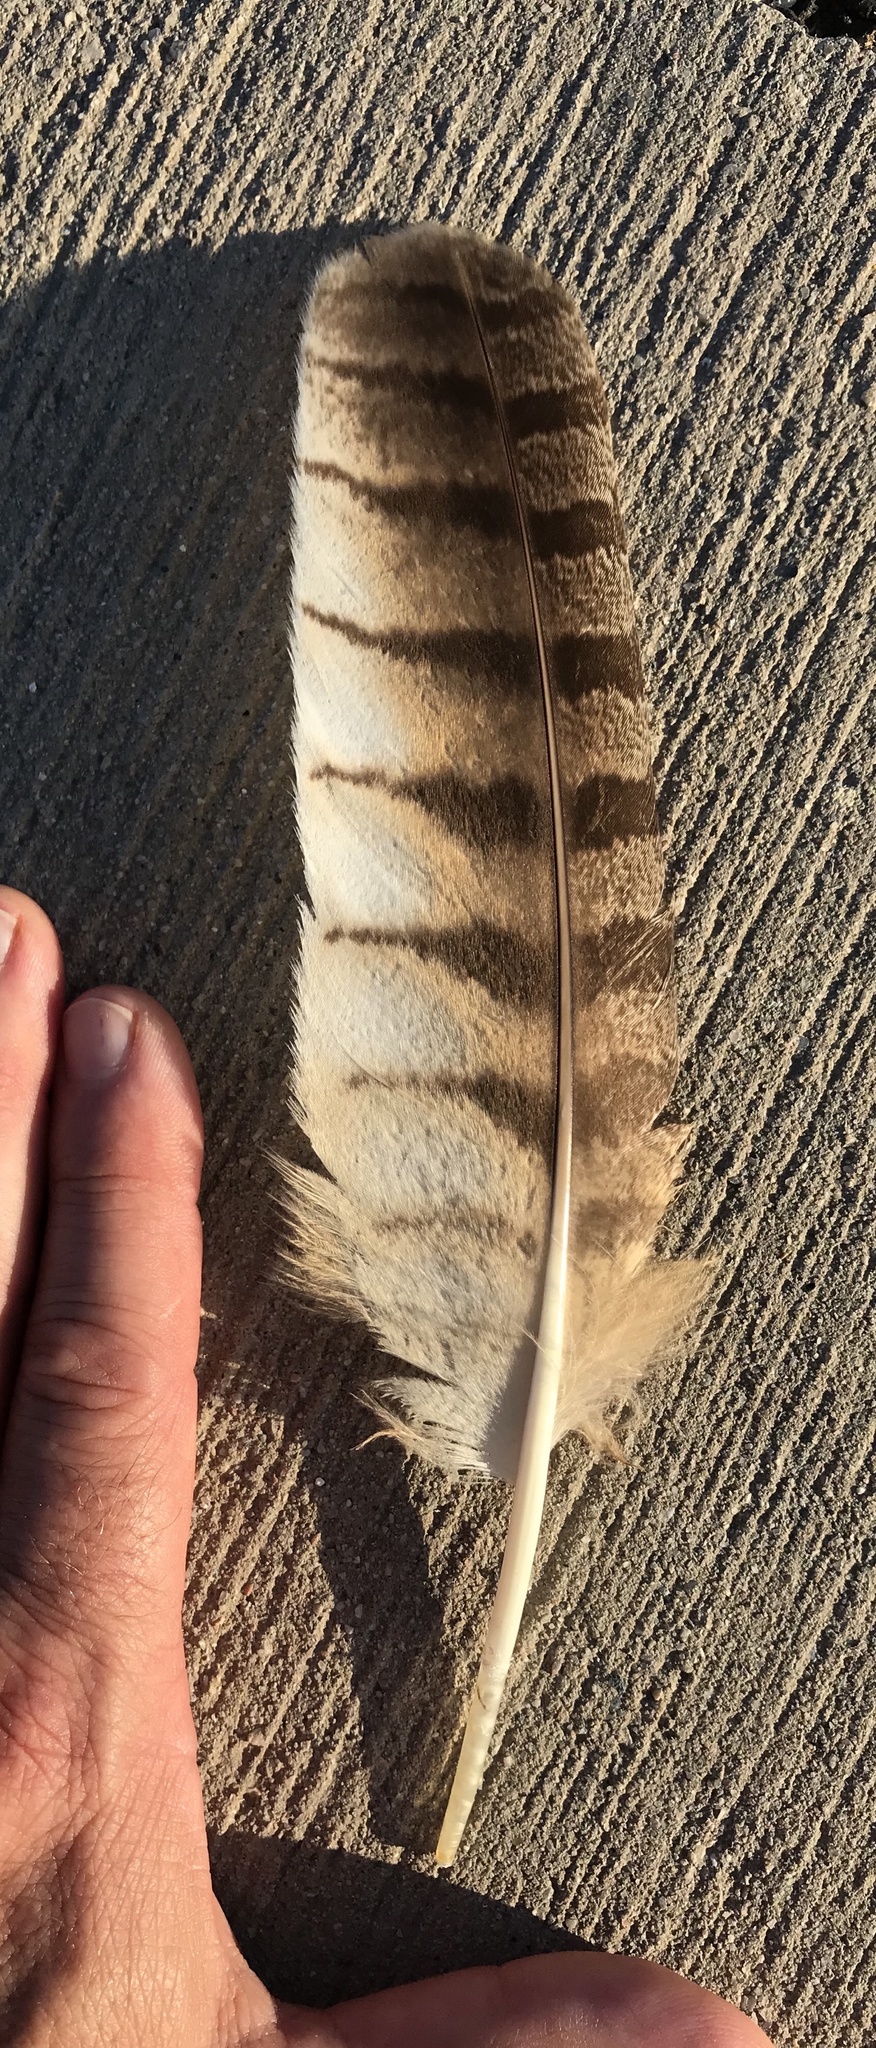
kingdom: Animalia
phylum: Chordata
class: Aves
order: Strigiformes
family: Strigidae
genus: Bubo
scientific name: Bubo virginianus
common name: Great horned owl
